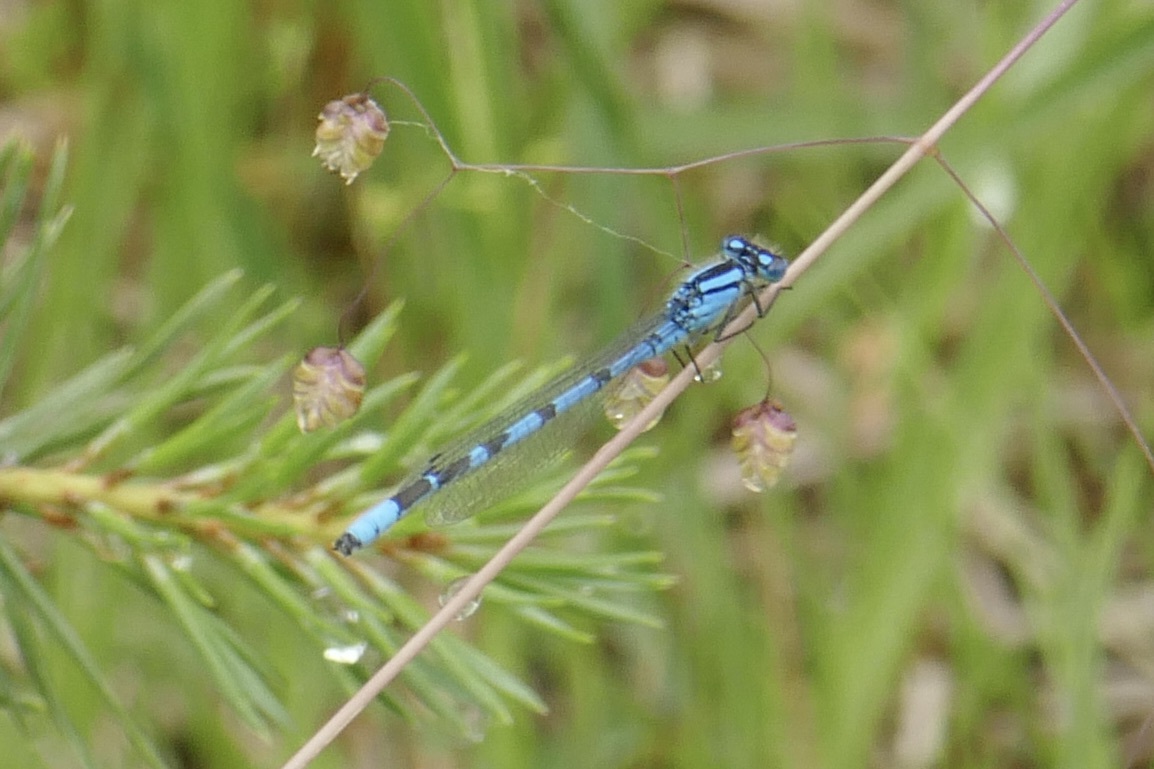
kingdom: Animalia
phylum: Arthropoda
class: Insecta
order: Odonata
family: Coenagrionidae
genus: Enallagma
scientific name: Enallagma cyathigerum
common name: Common blue damselfly
